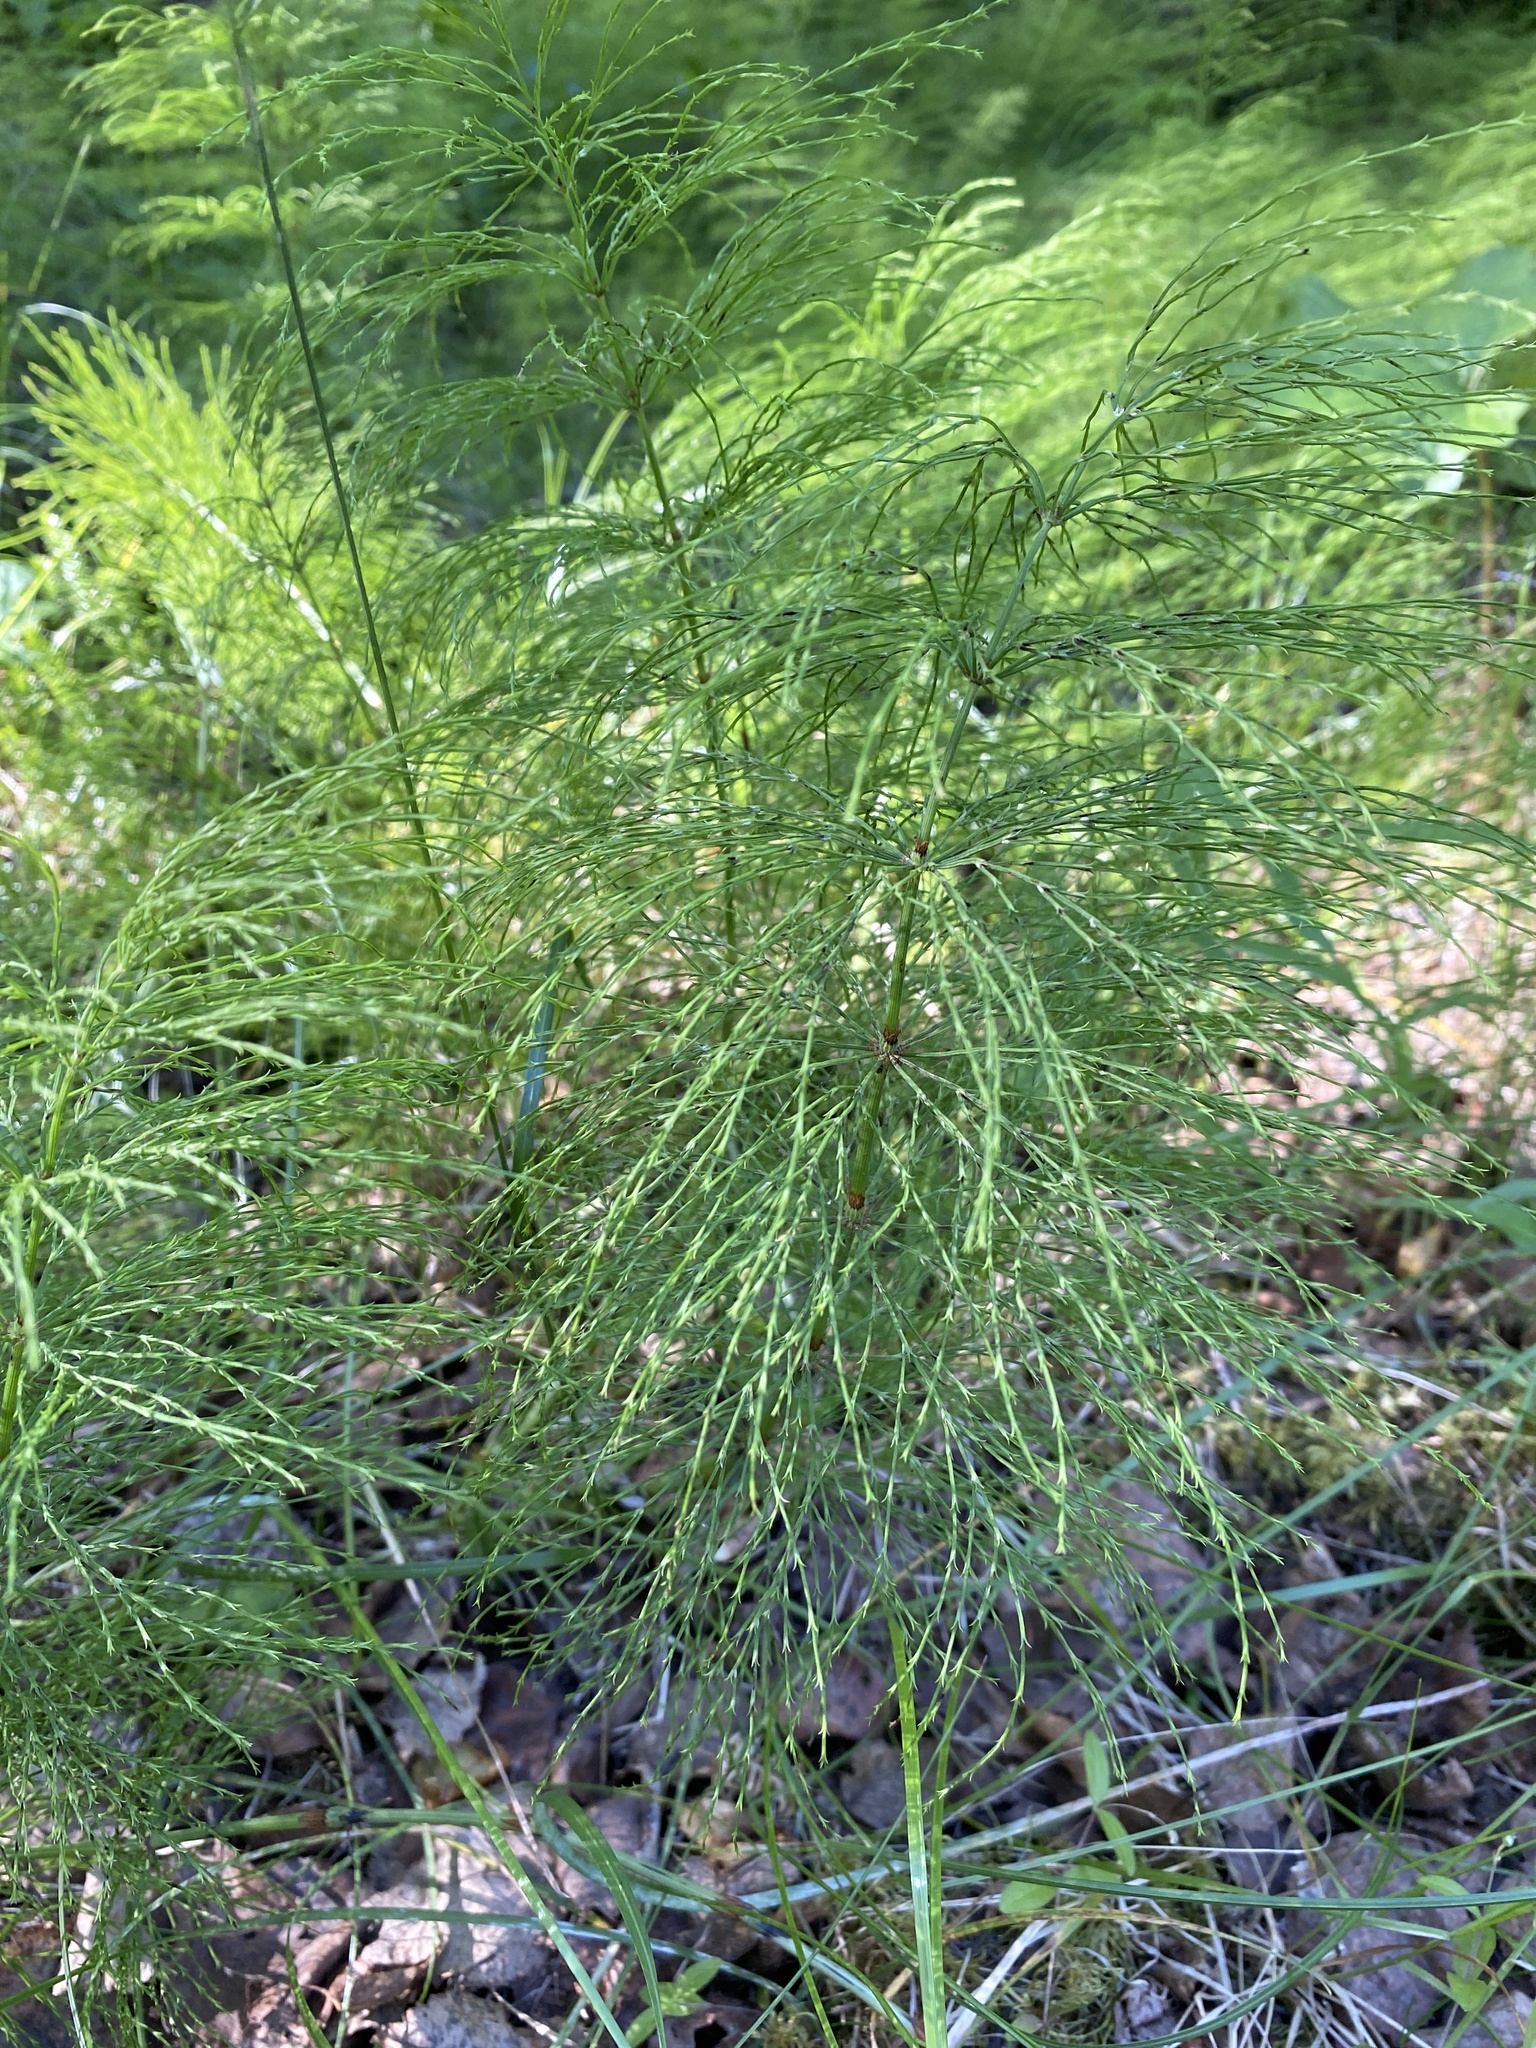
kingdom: Plantae
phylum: Tracheophyta
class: Polypodiopsida
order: Equisetales
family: Equisetaceae
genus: Equisetum
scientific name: Equisetum sylvaticum
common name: Wood horsetail
